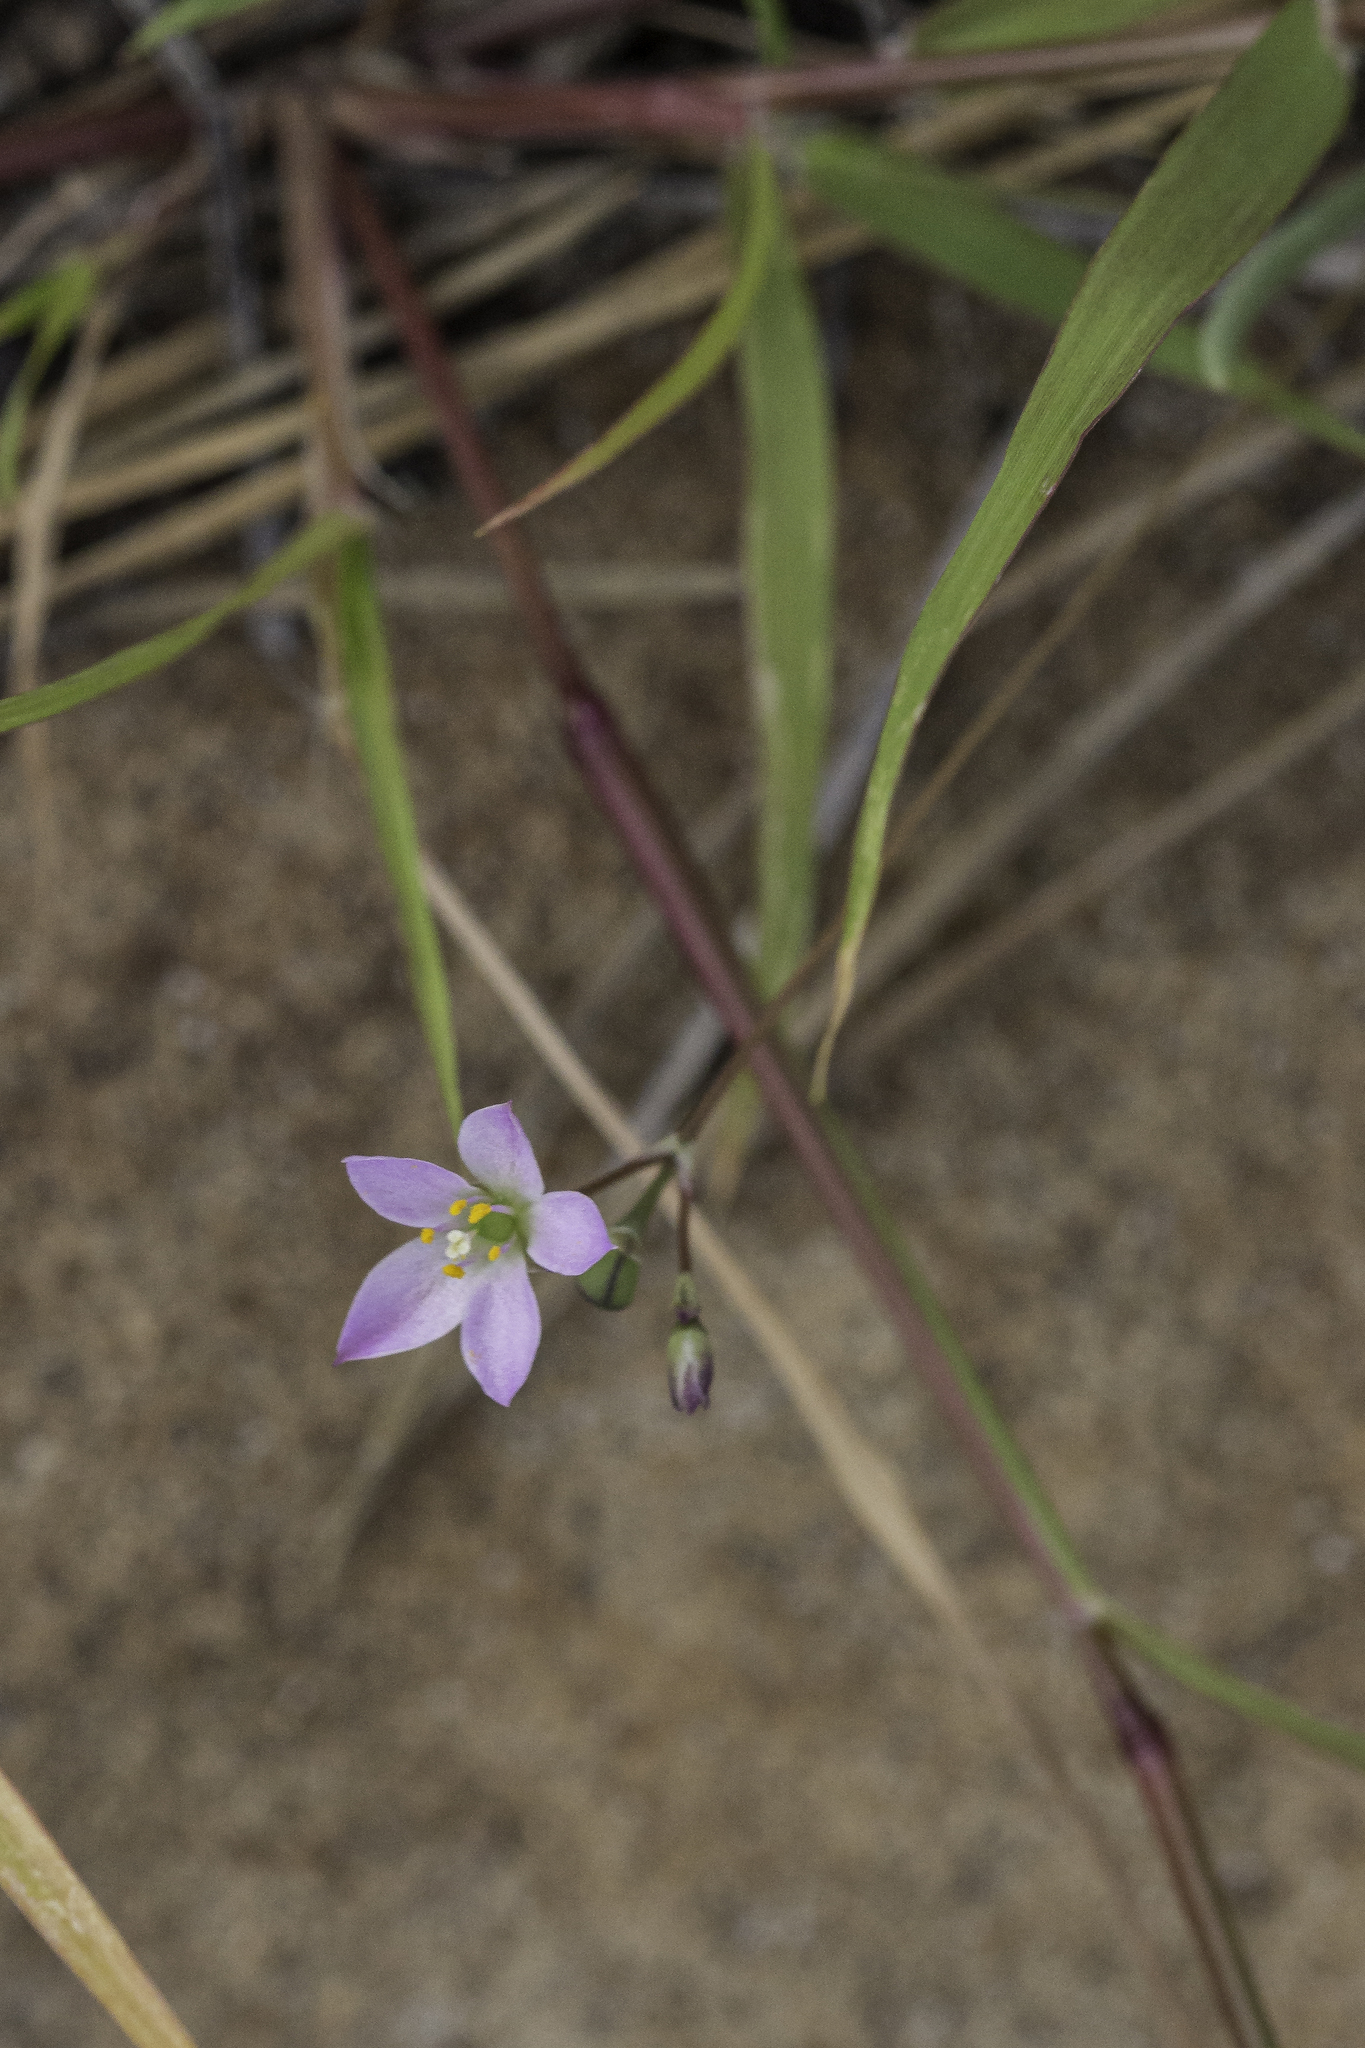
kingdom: Plantae
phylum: Tracheophyta
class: Magnoliopsida
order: Caryophyllales
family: Montiaceae
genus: Phemeranthus
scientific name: Phemeranthus confertiflorus
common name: New mexico fameflower
